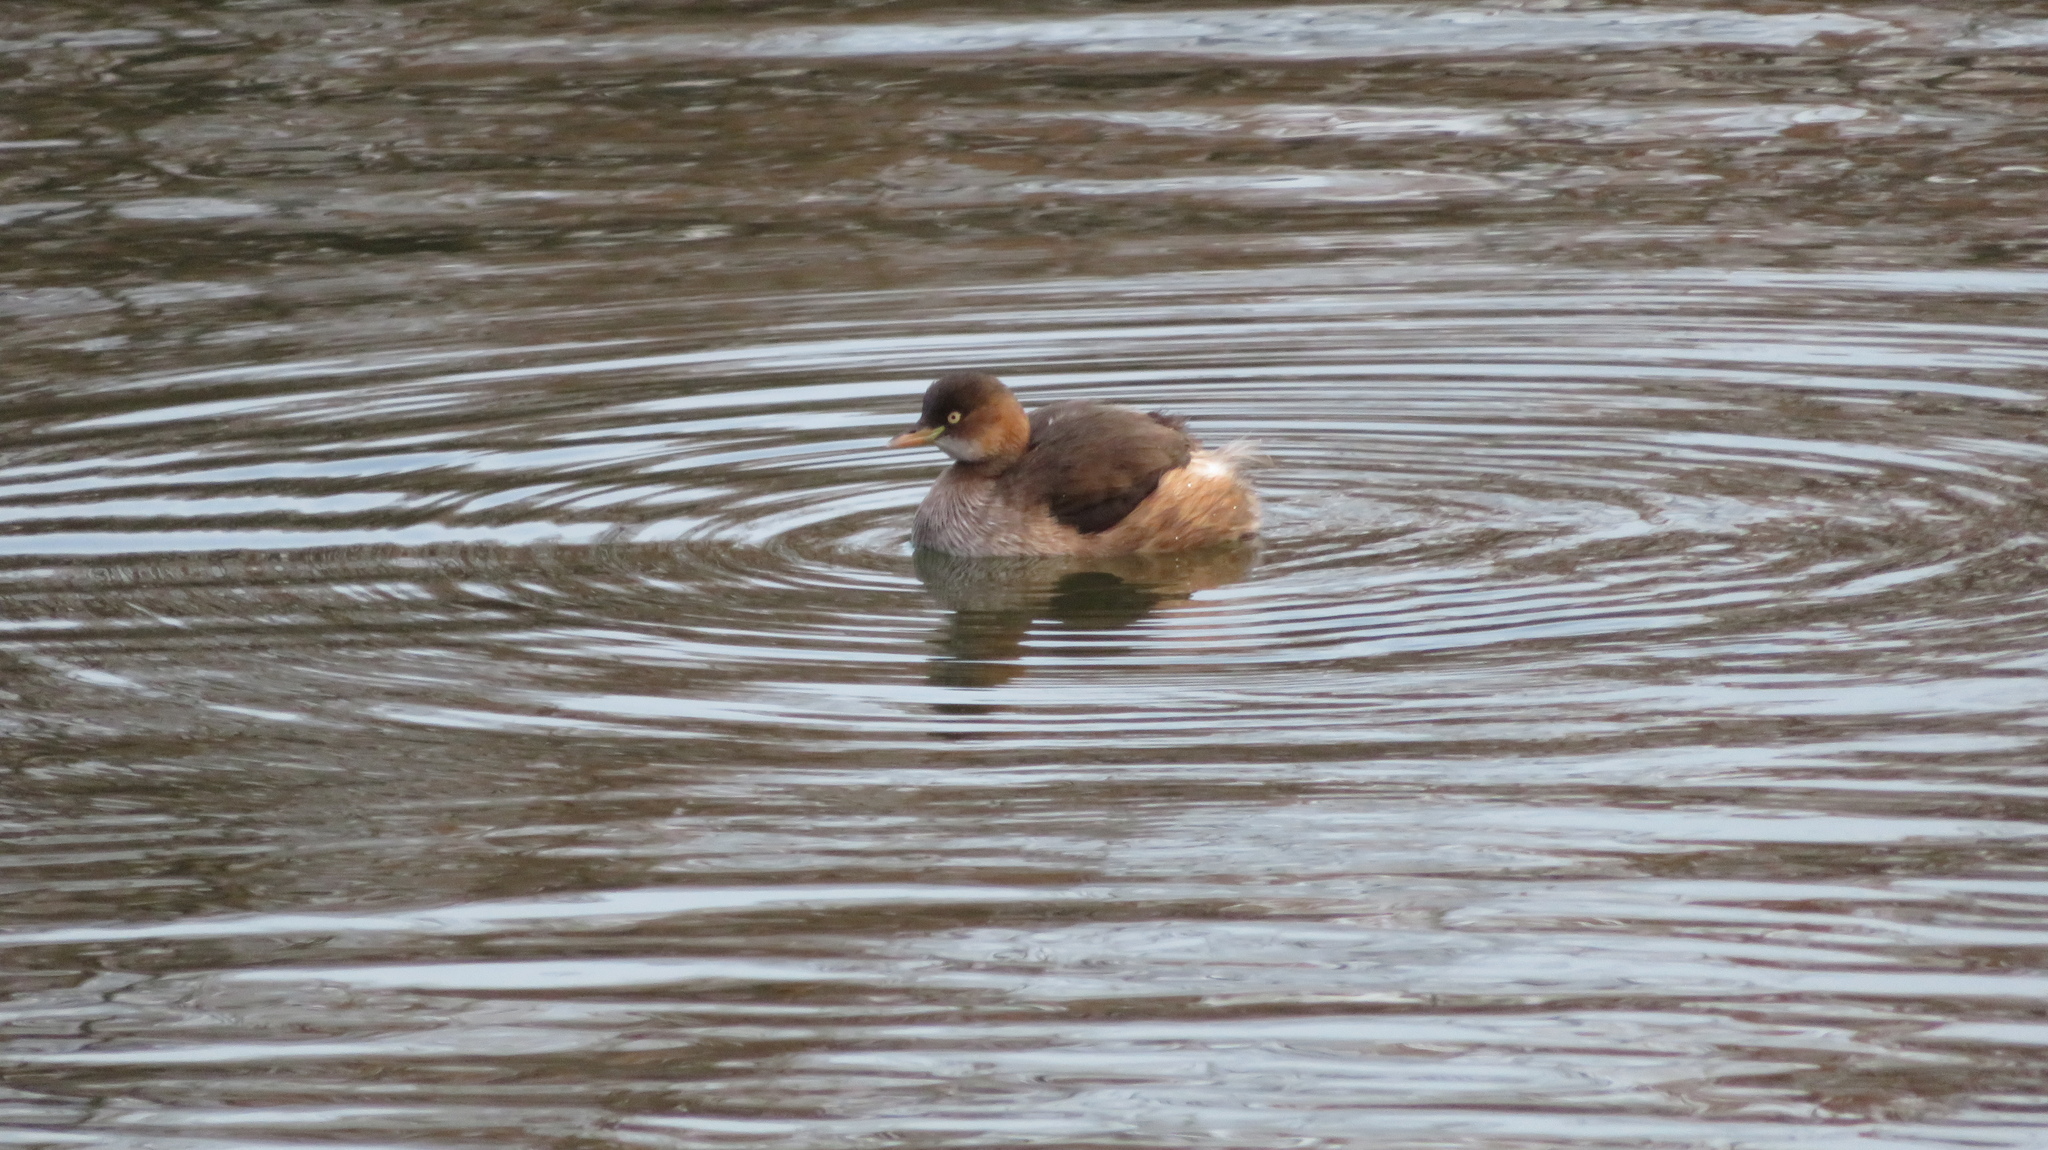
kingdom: Animalia
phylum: Chordata
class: Aves
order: Podicipediformes
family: Podicipedidae
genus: Tachybaptus
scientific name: Tachybaptus ruficollis
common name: Little grebe
